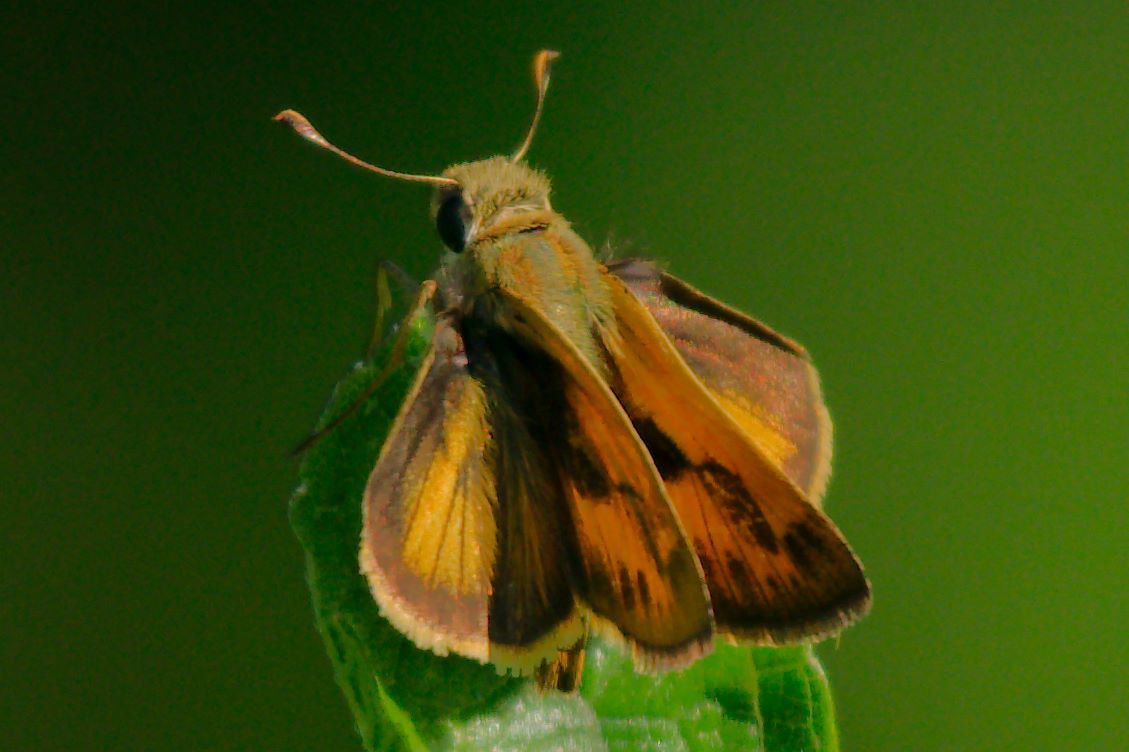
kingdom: Animalia
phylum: Arthropoda
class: Insecta
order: Lepidoptera
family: Hesperiidae
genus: Polites
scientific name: Polites vibex
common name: Whirlabout
